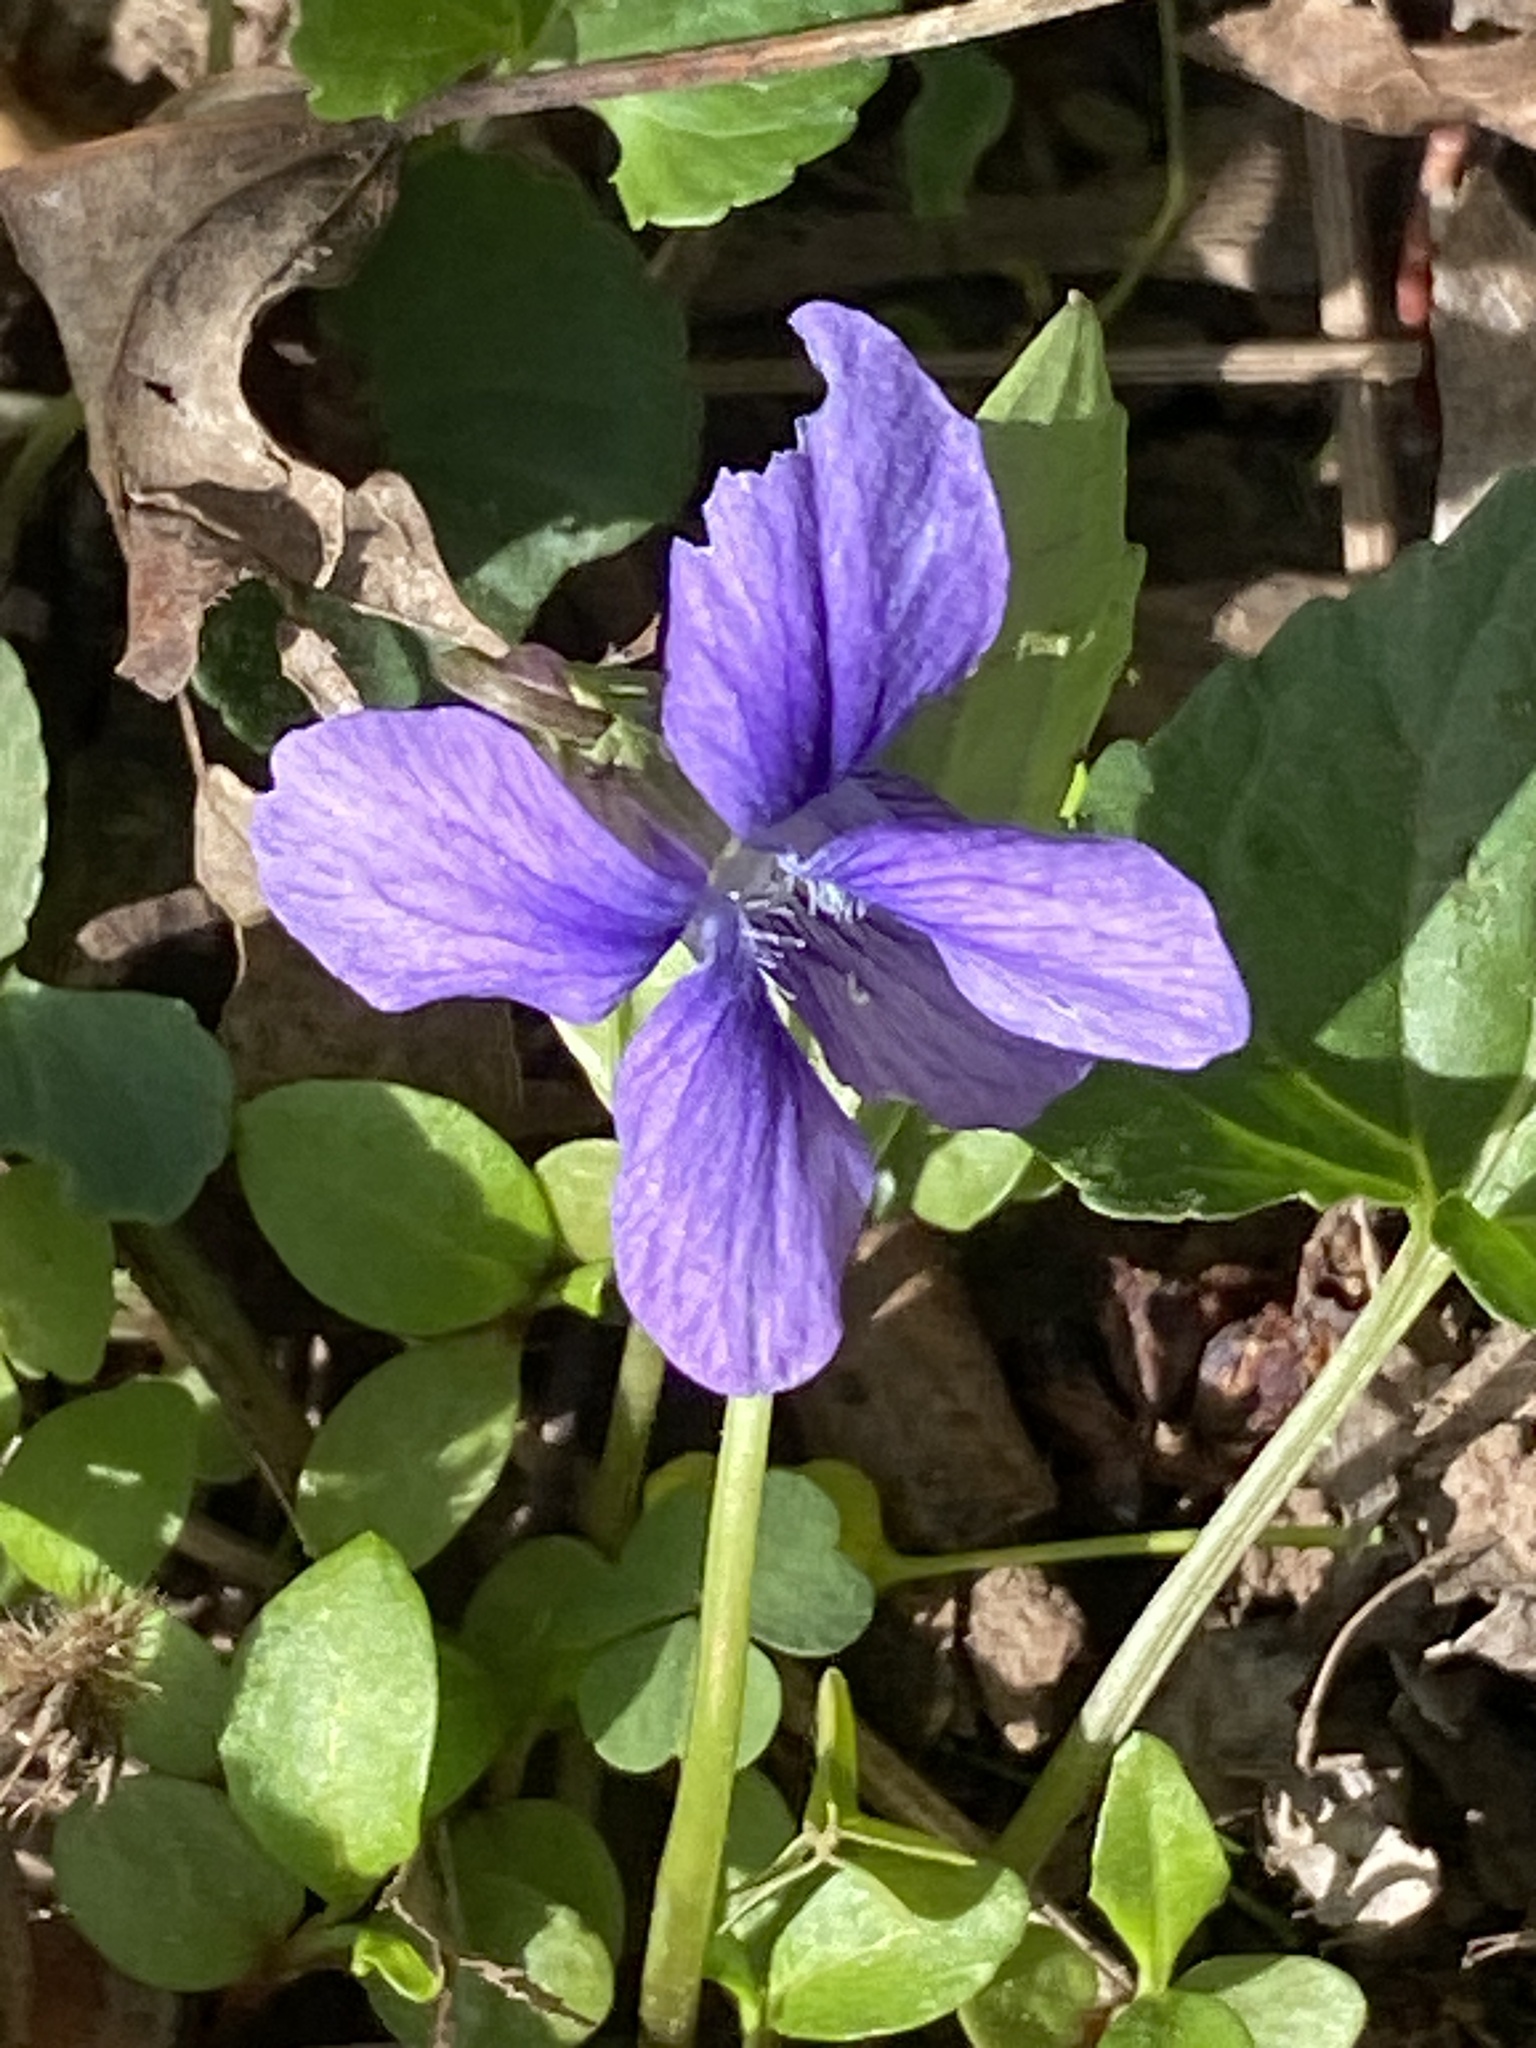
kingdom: Plantae
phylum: Tracheophyta
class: Magnoliopsida
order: Malpighiales
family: Violaceae
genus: Viola
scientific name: Viola sororia
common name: Dooryard violet
